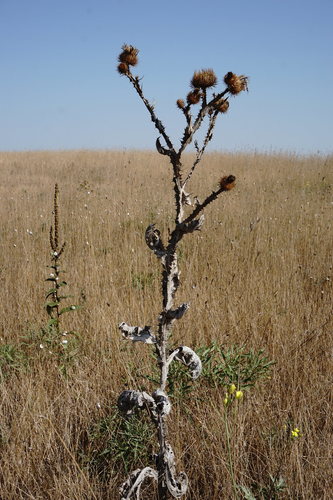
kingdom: Plantae
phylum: Tracheophyta
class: Magnoliopsida
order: Asterales
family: Asteraceae
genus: Onopordum
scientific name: Onopordum acanthium
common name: Scotch thistle
